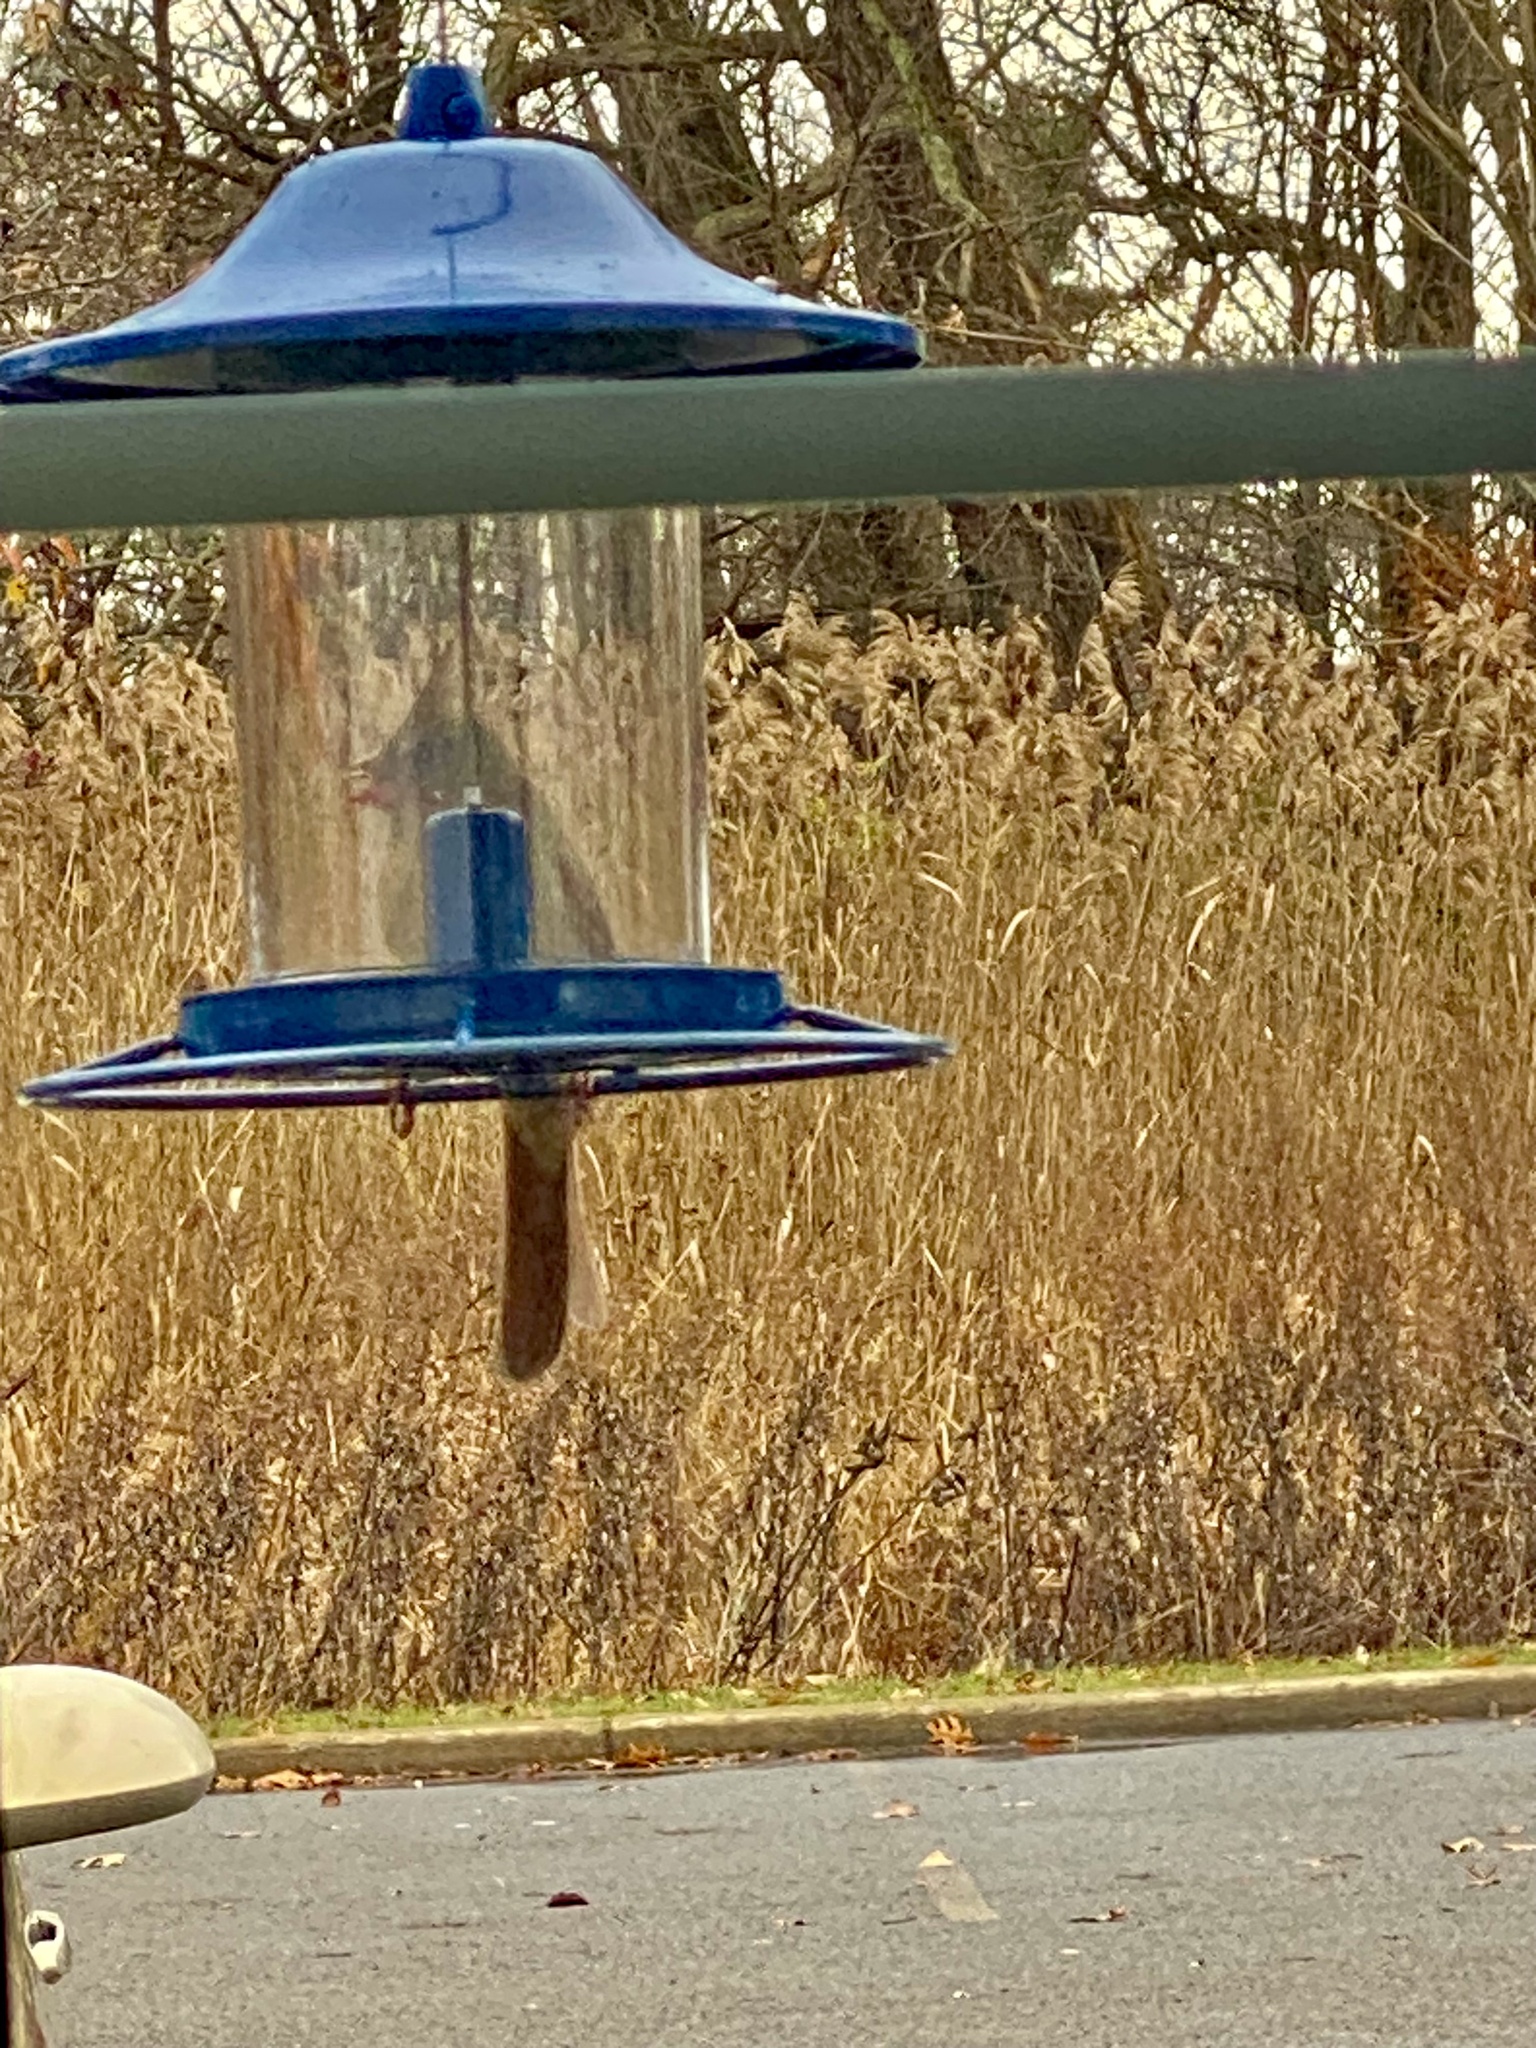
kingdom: Animalia
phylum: Chordata
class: Aves
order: Passeriformes
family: Cardinalidae
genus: Cardinalis
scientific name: Cardinalis cardinalis
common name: Northern cardinal
